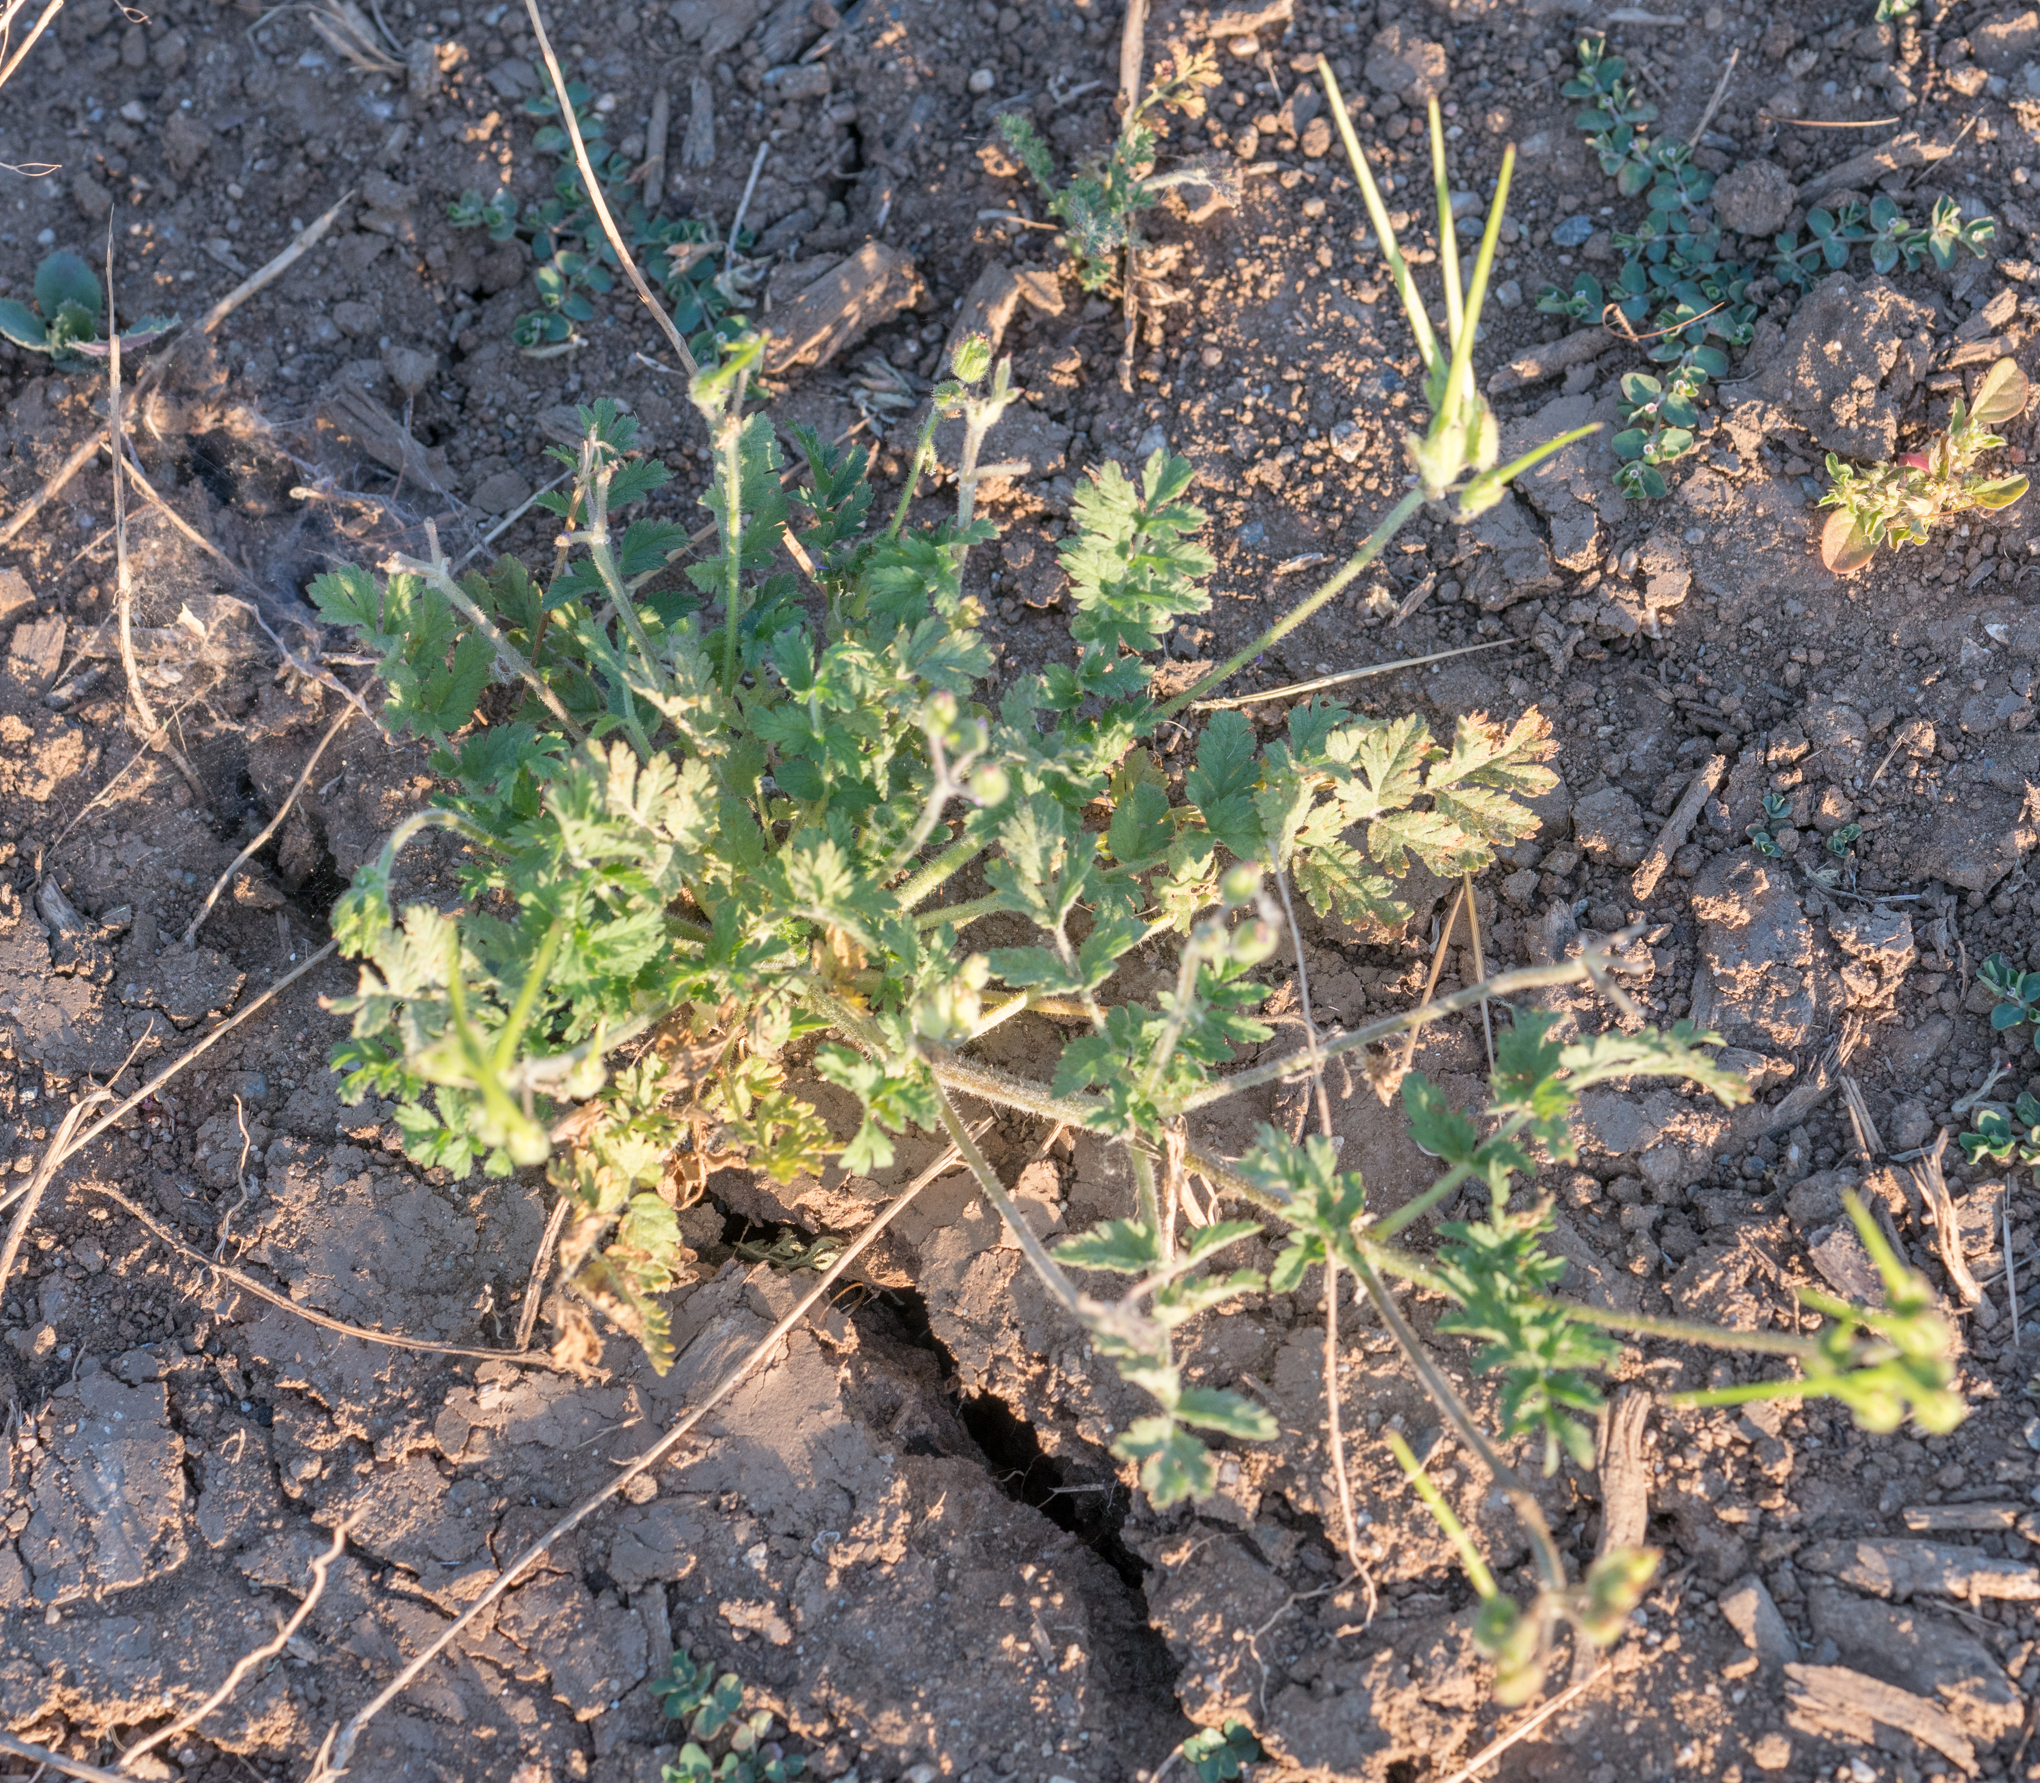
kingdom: Plantae
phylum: Tracheophyta
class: Magnoliopsida
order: Geraniales
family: Geraniaceae
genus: Erodium
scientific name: Erodium moschatum
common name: Musk stork's-bill
